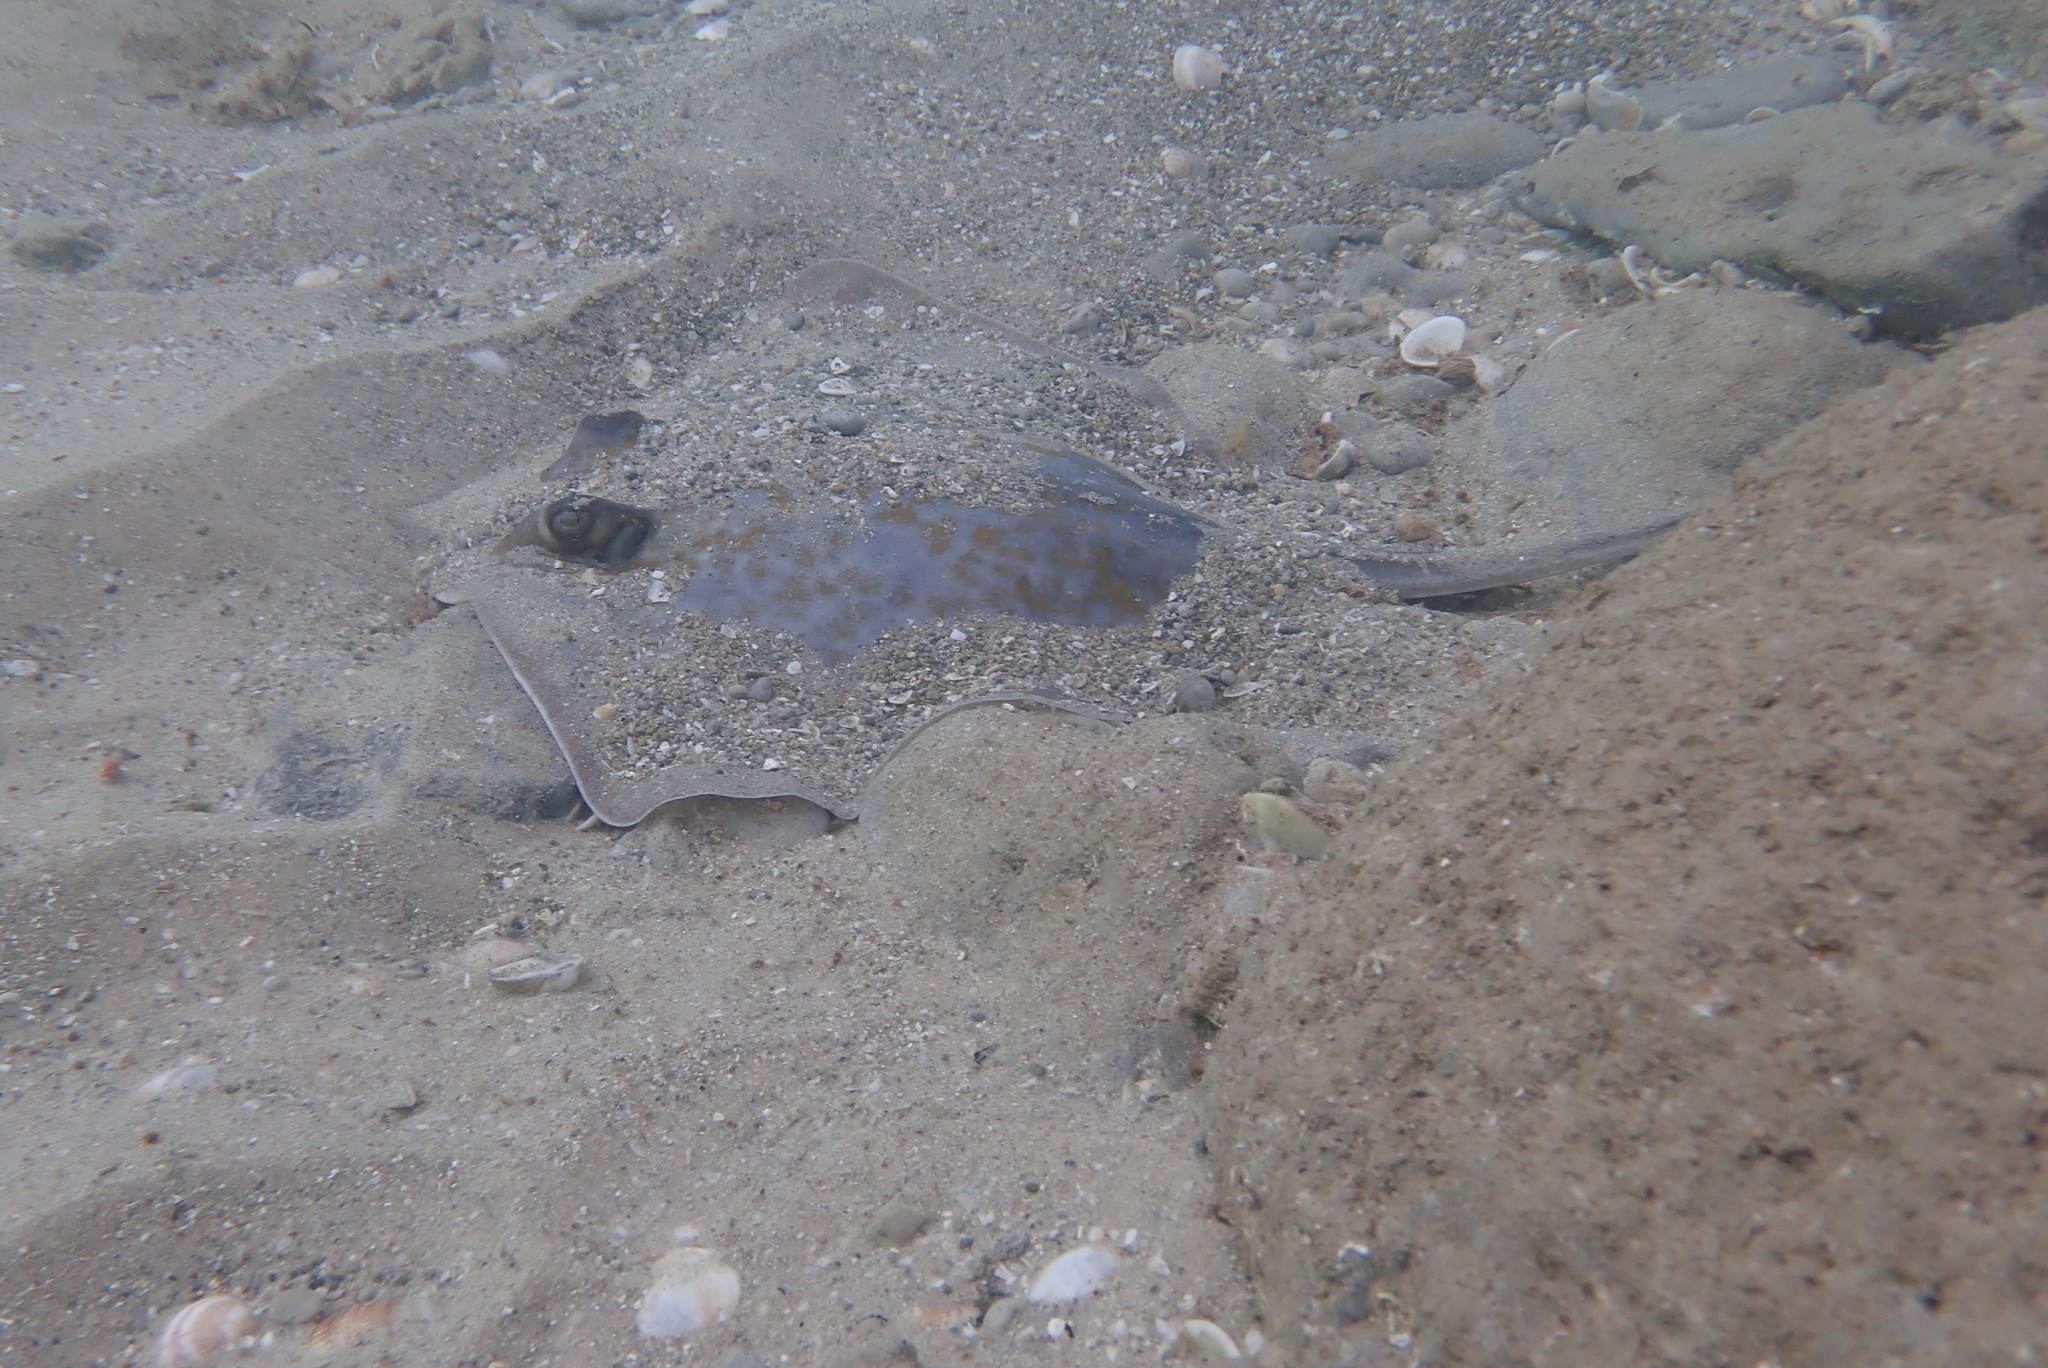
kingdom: Animalia
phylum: Chordata
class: Elasmobranchii
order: Myliobatiformes
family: Dasyatidae
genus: Dasyatis
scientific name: Dasyatis marmorata
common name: Marbled stingray
